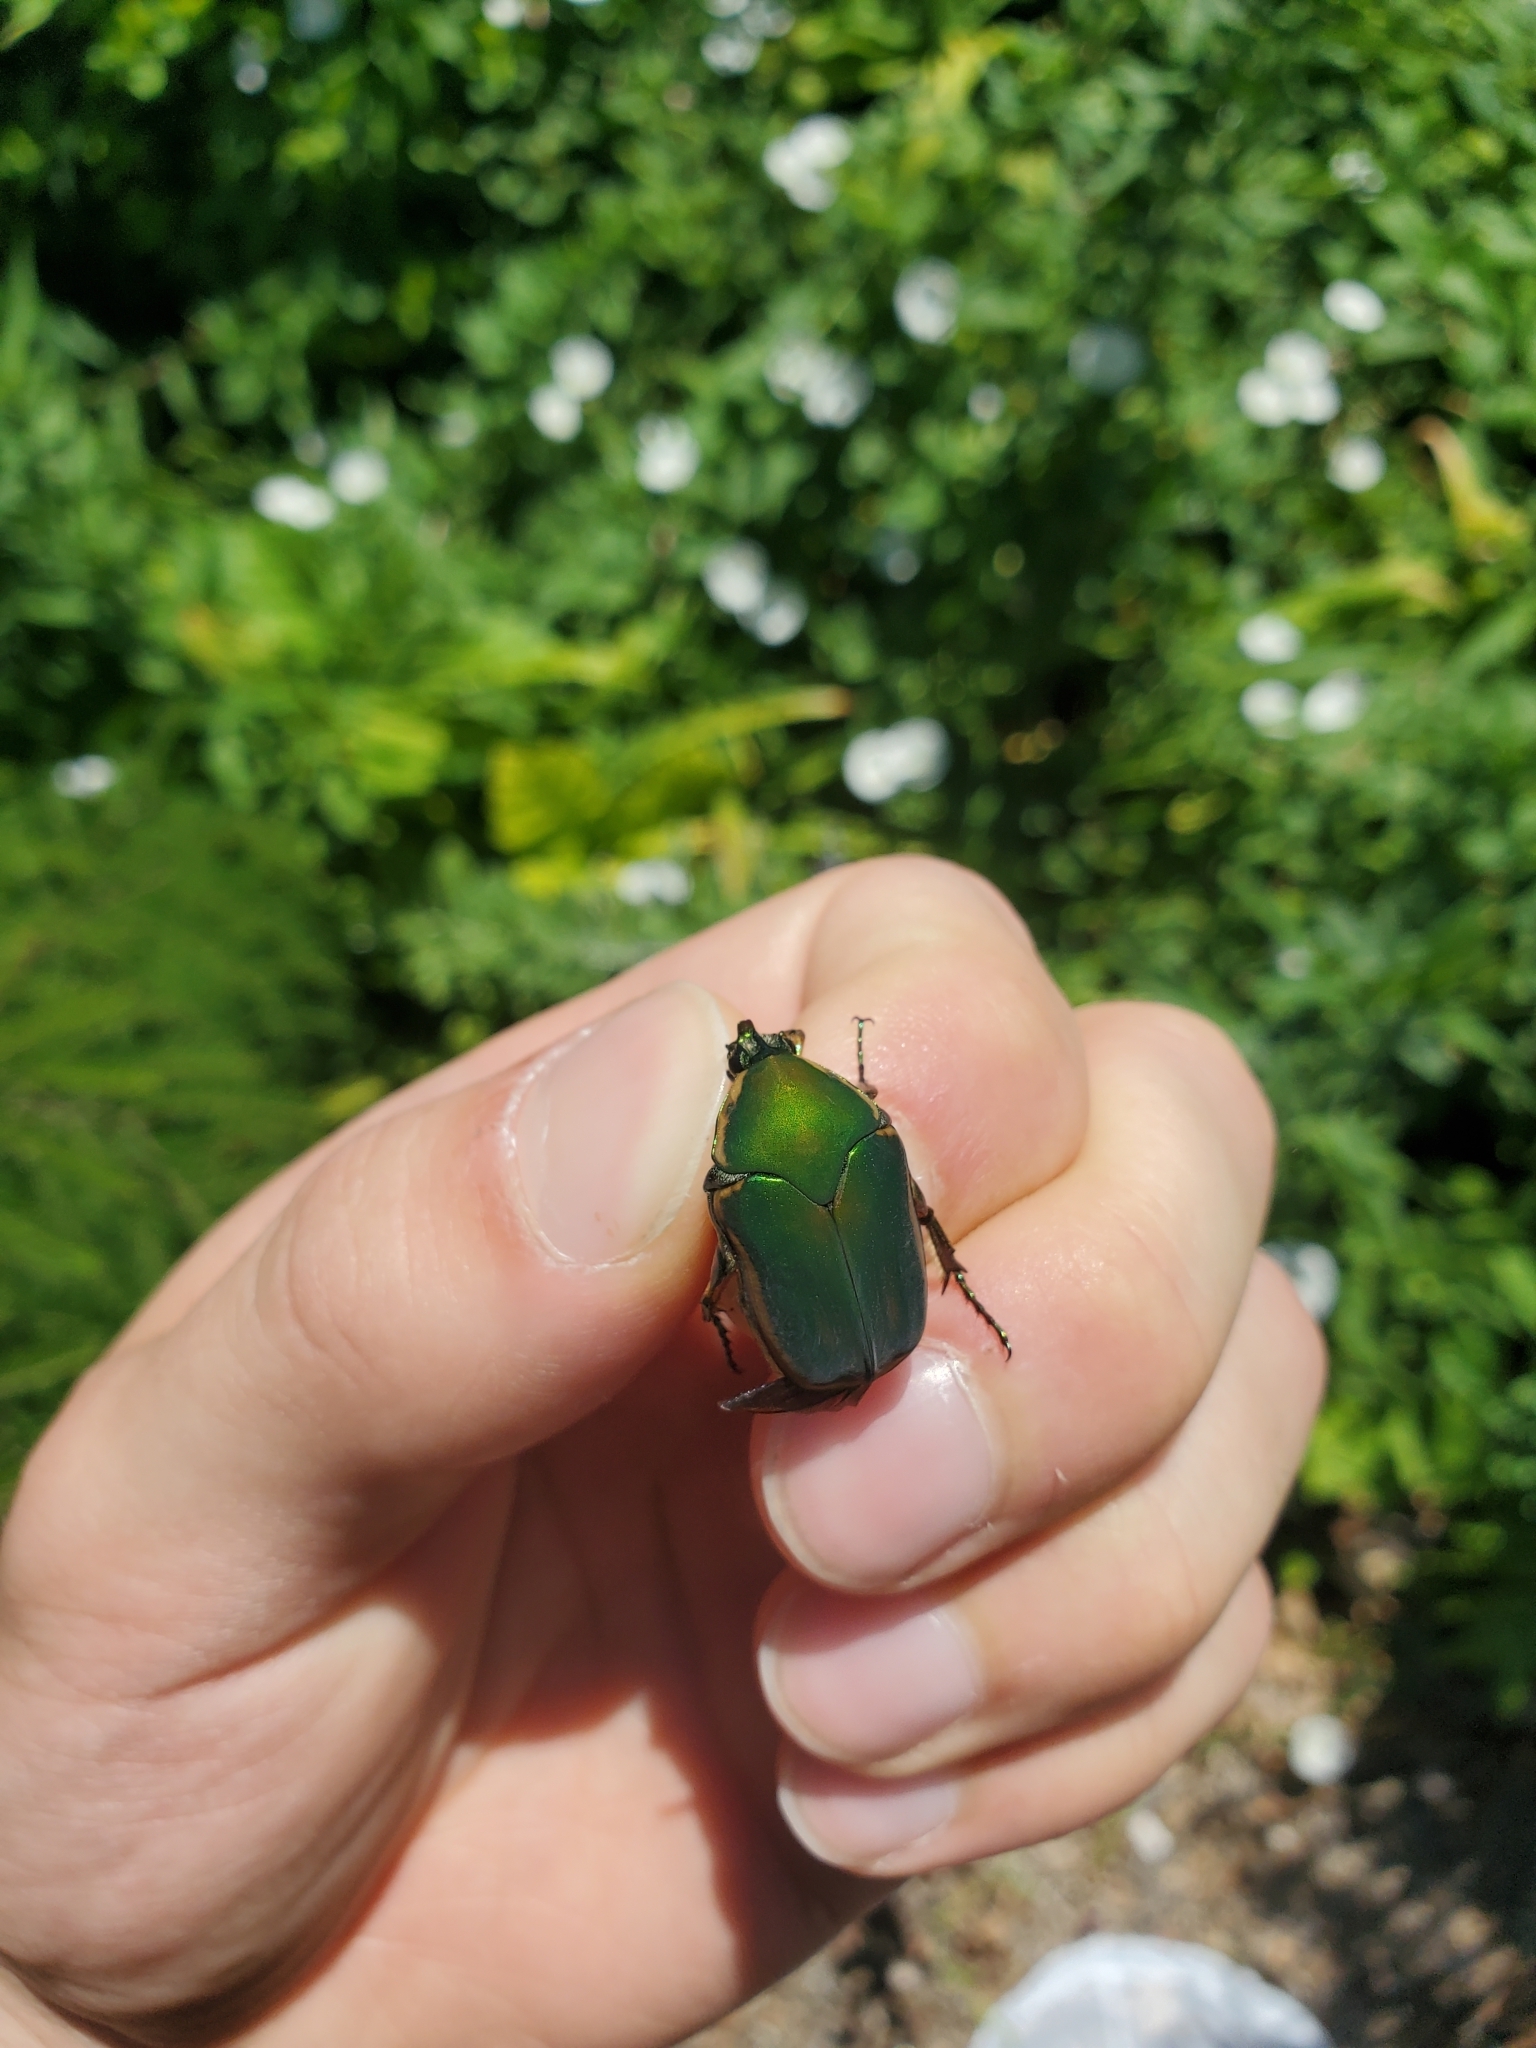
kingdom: Animalia
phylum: Arthropoda
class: Insecta
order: Coleoptera
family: Scarabaeidae
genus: Cotinis
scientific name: Cotinis nitida
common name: Common green june beetle
